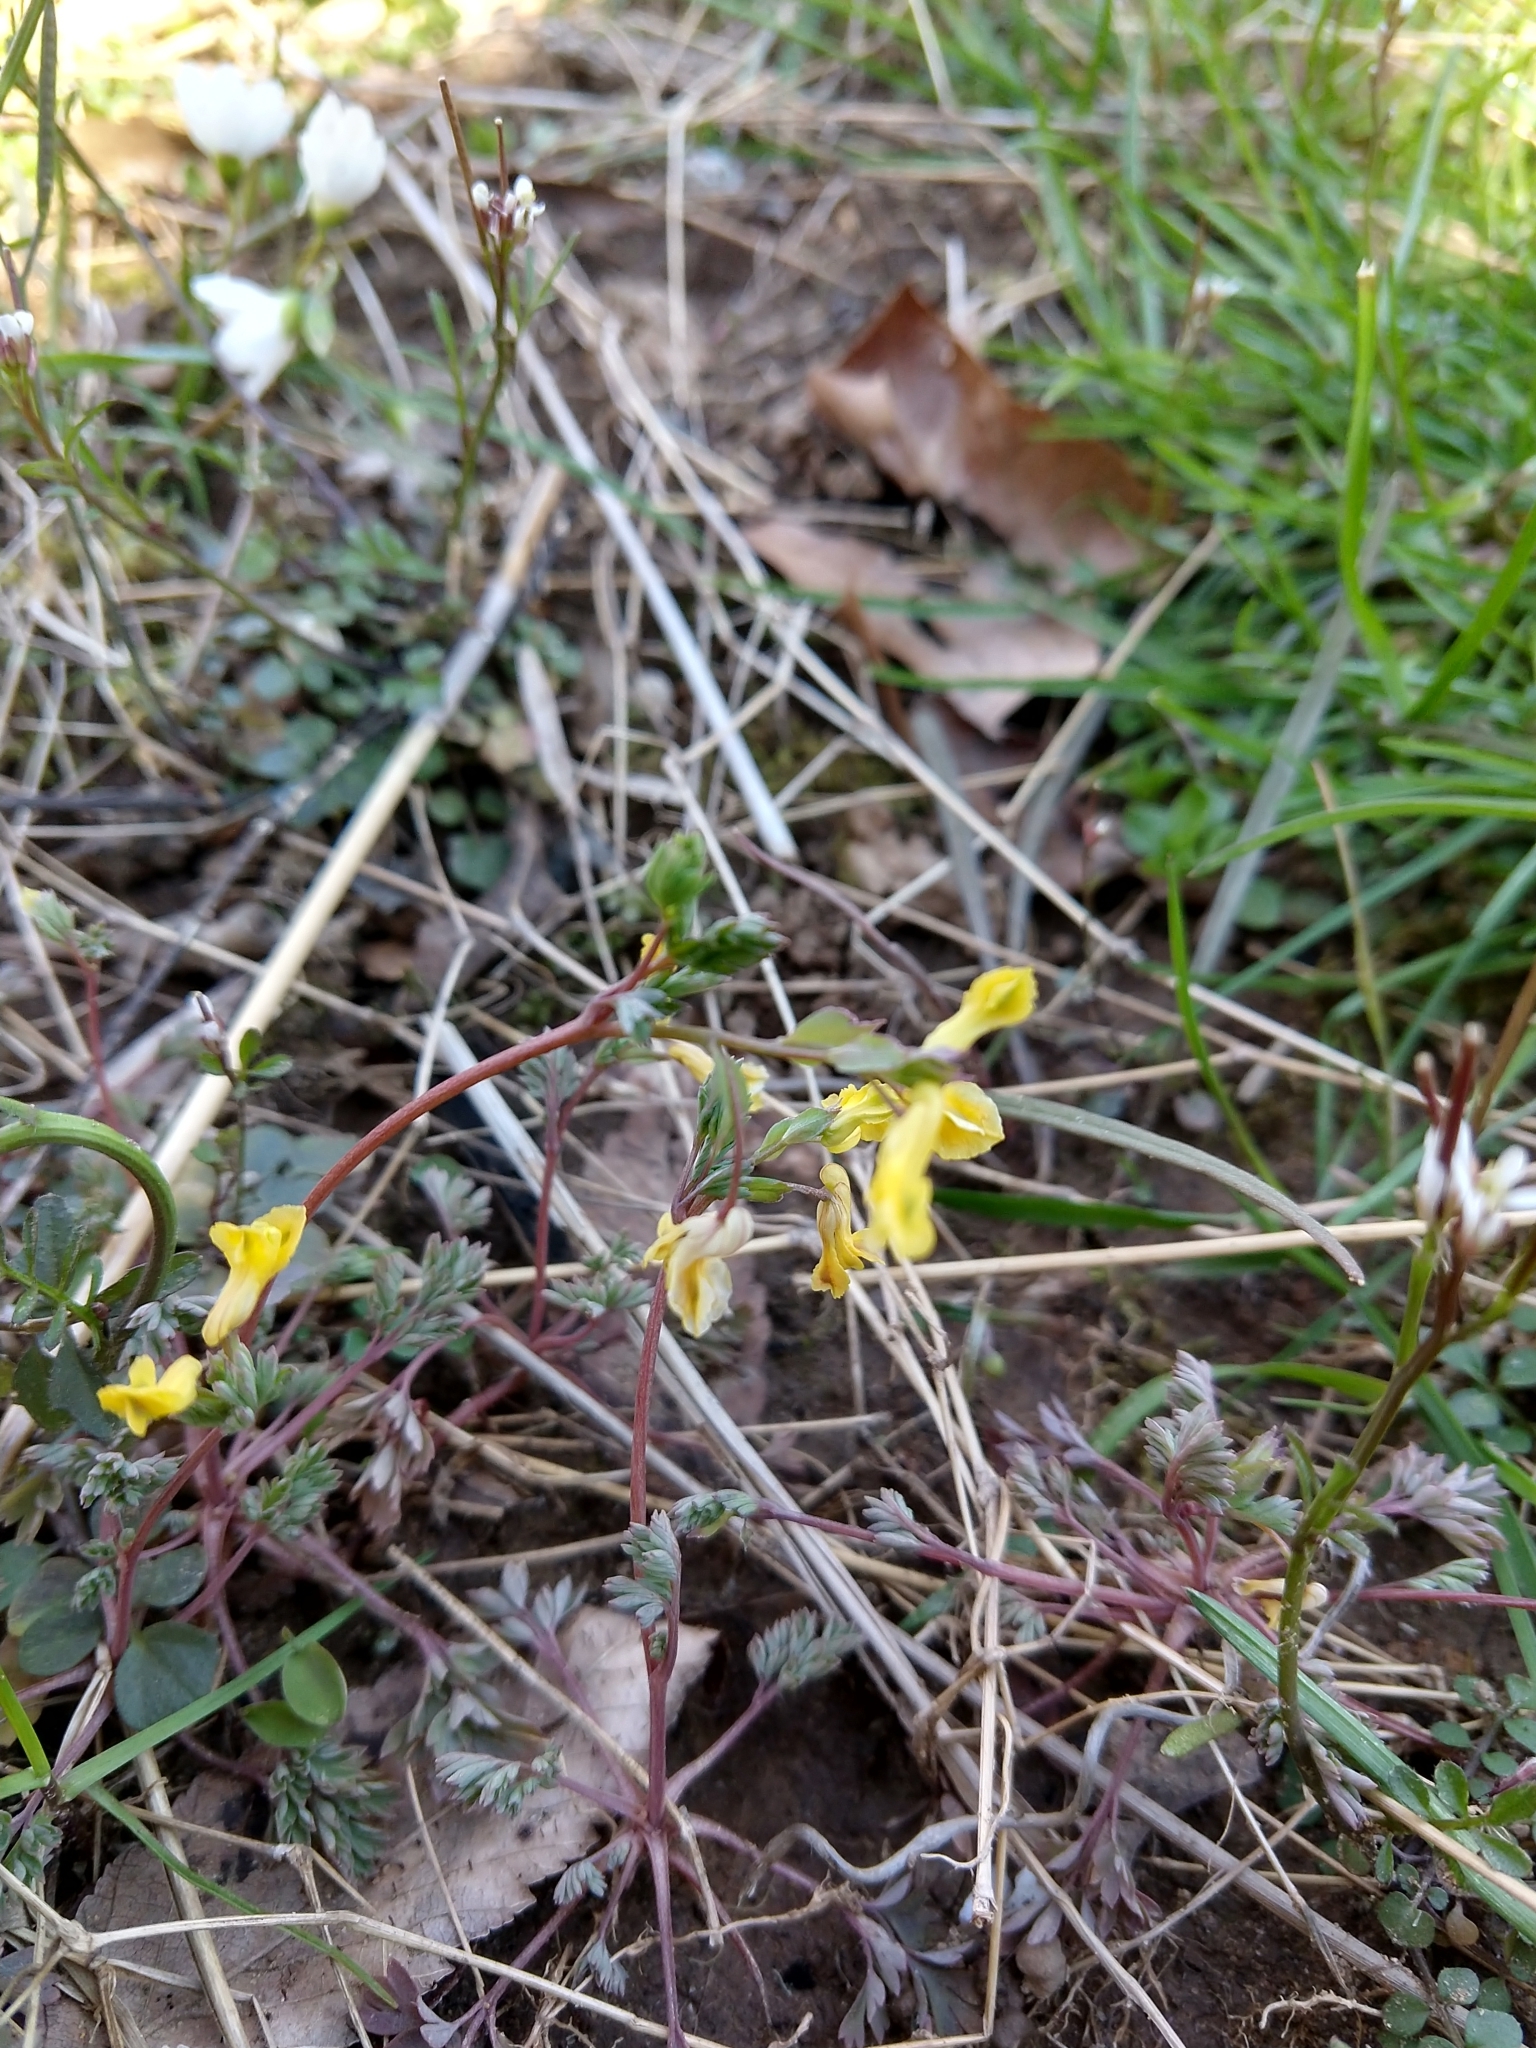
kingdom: Plantae
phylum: Tracheophyta
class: Magnoliopsida
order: Ranunculales
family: Papaveraceae
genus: Corydalis
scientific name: Corydalis flavula
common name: Yellow corydalis
